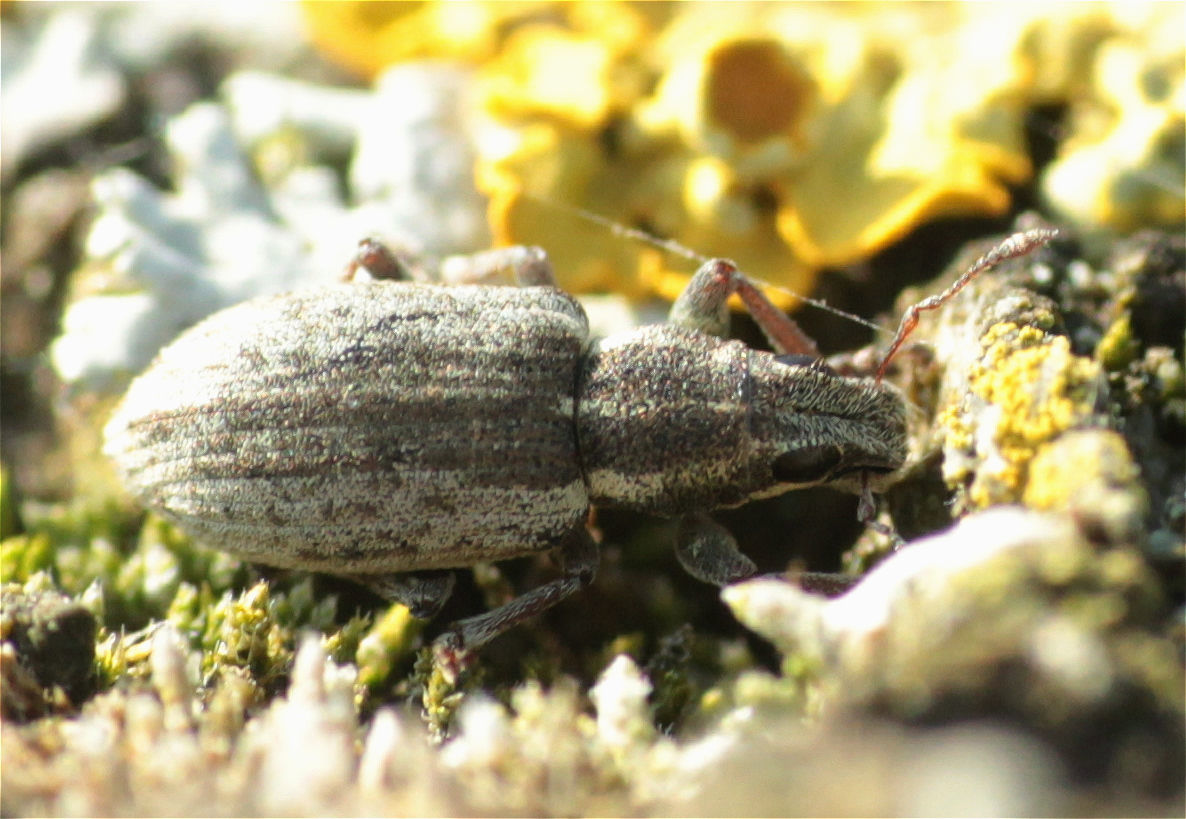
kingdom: Animalia
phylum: Arthropoda
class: Insecta
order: Coleoptera
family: Curculionidae
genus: Sitona
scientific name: Sitona humeralis
